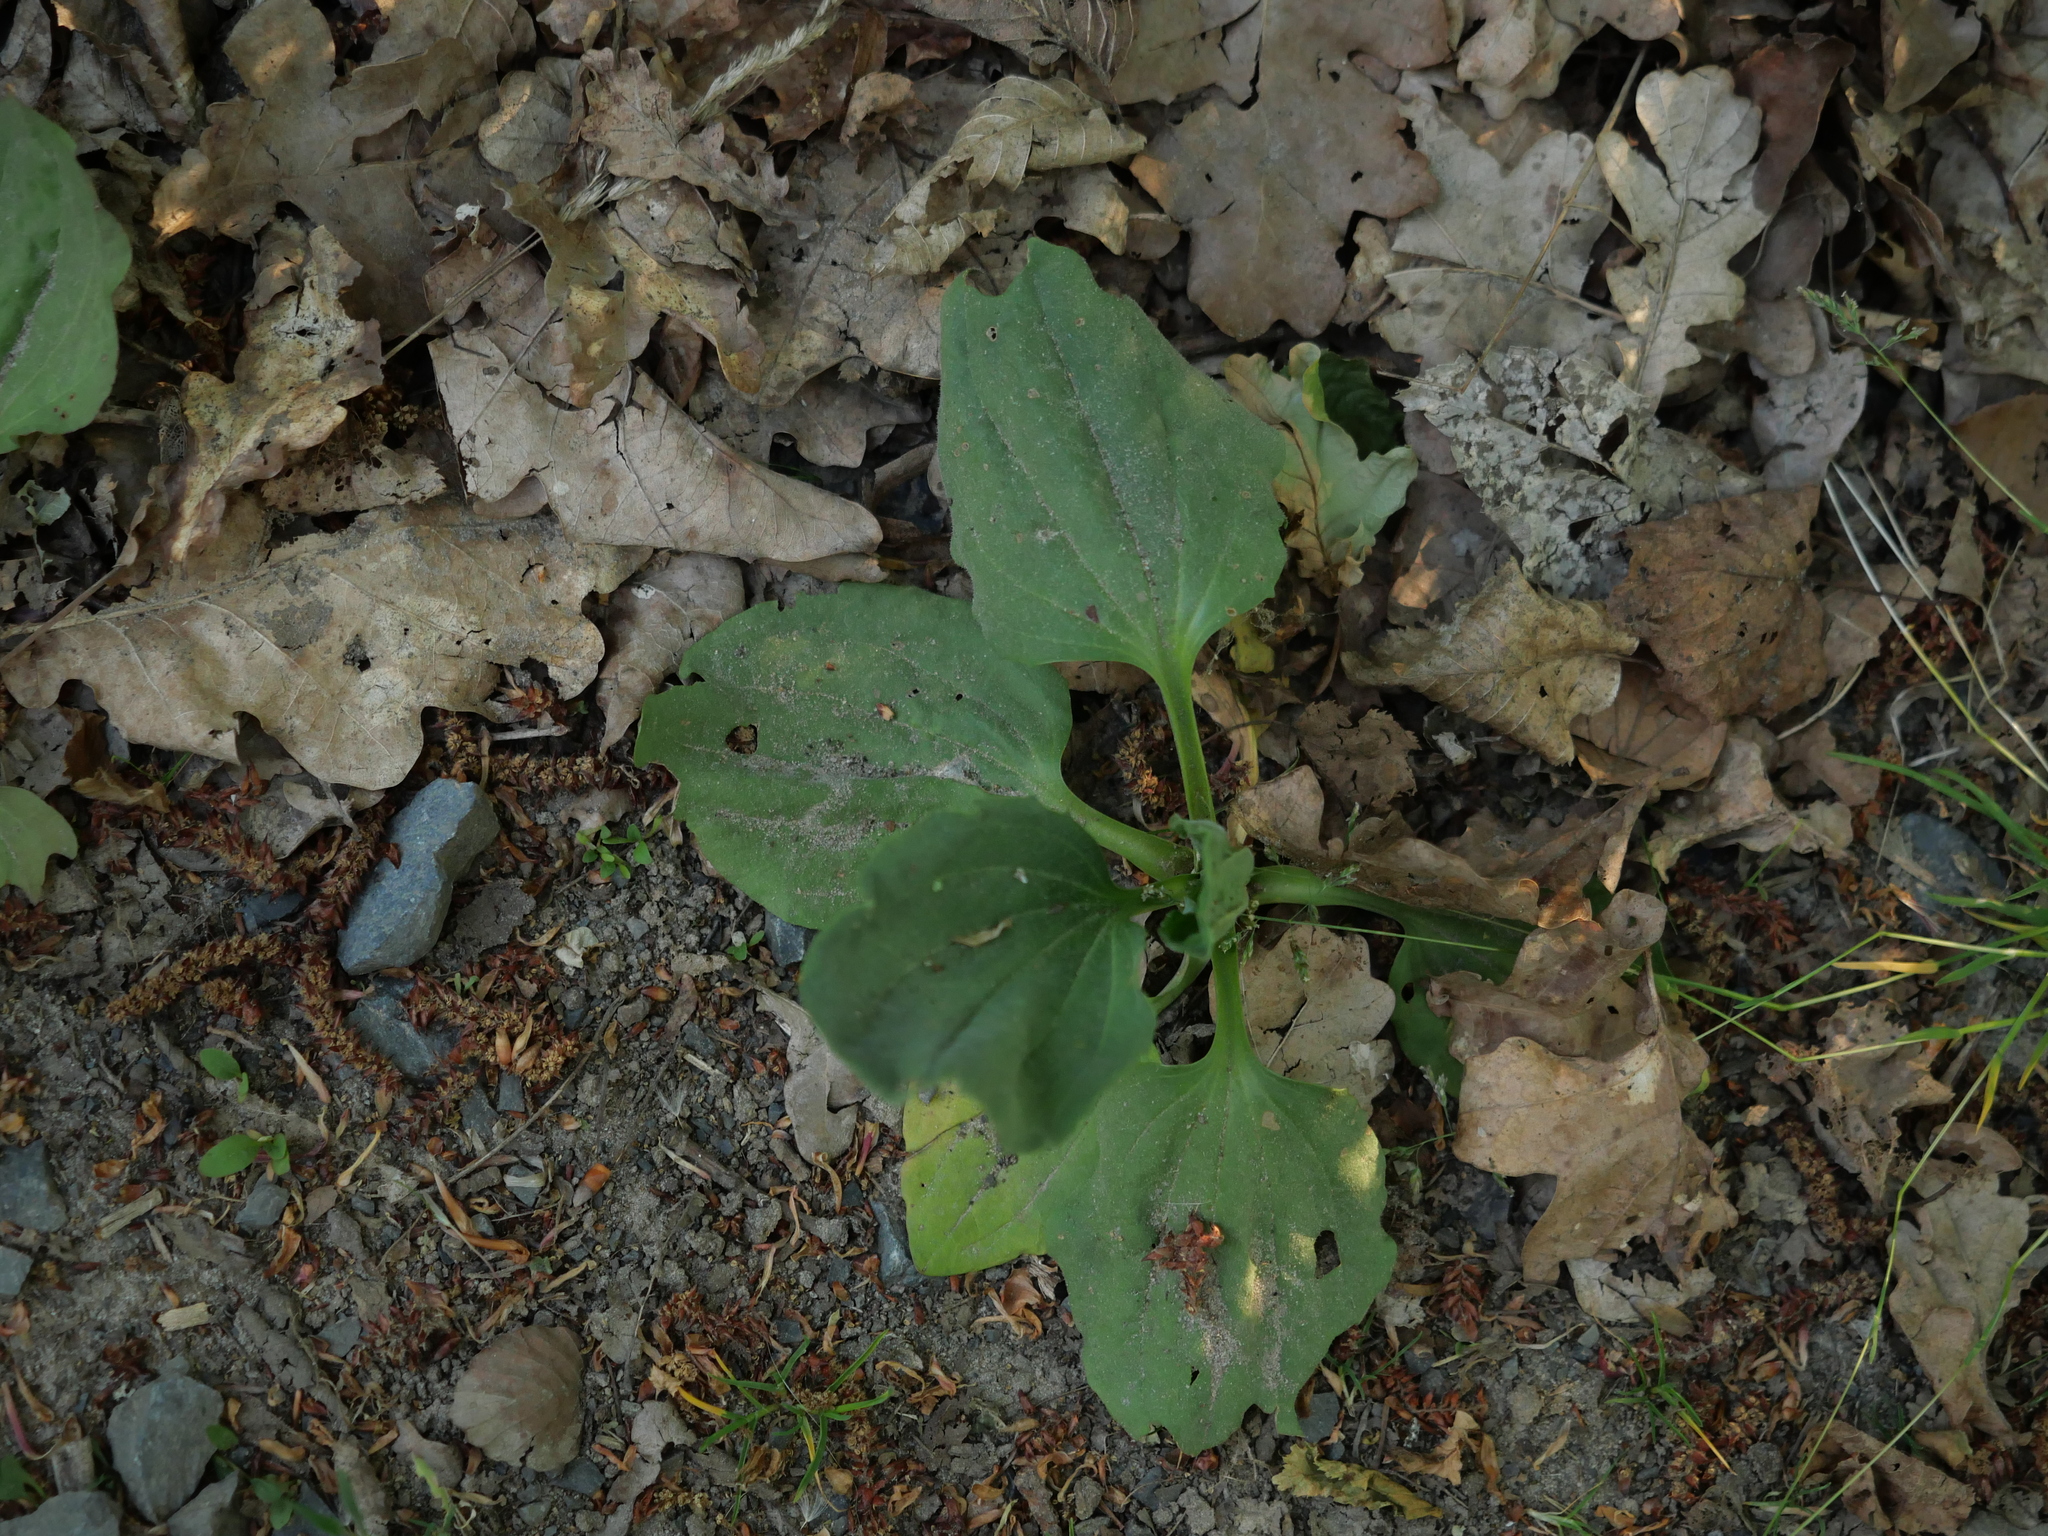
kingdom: Plantae
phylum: Tracheophyta
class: Magnoliopsida
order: Lamiales
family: Plantaginaceae
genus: Plantago
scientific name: Plantago major
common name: Common plantain
